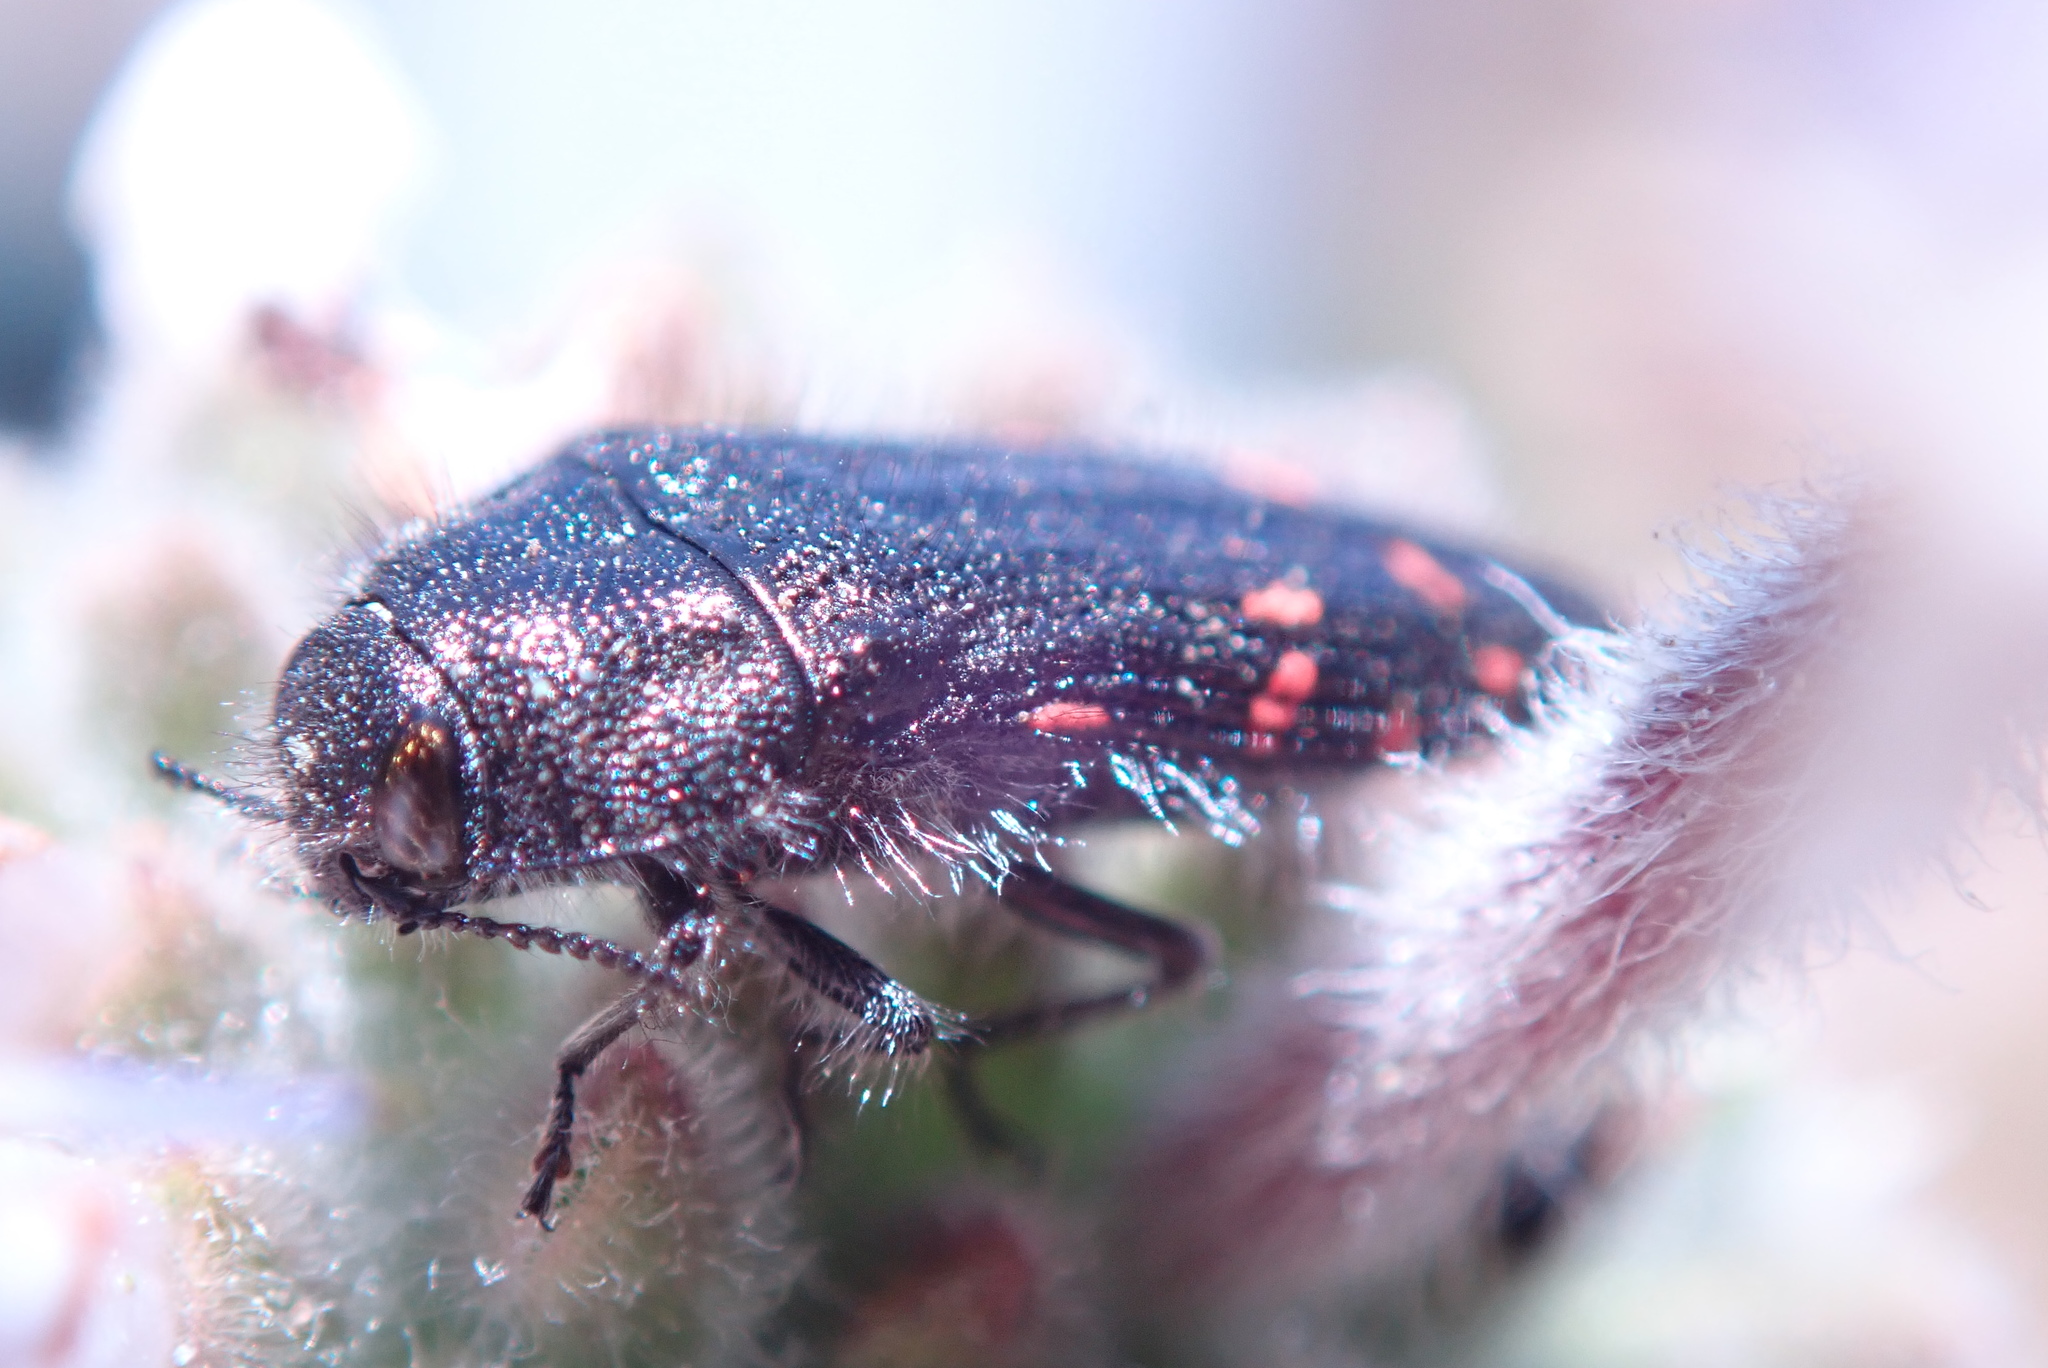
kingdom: Animalia
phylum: Arthropoda
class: Insecta
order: Coleoptera
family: Buprestidae
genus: Acmaeodera
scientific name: Acmaeodera vandykei
